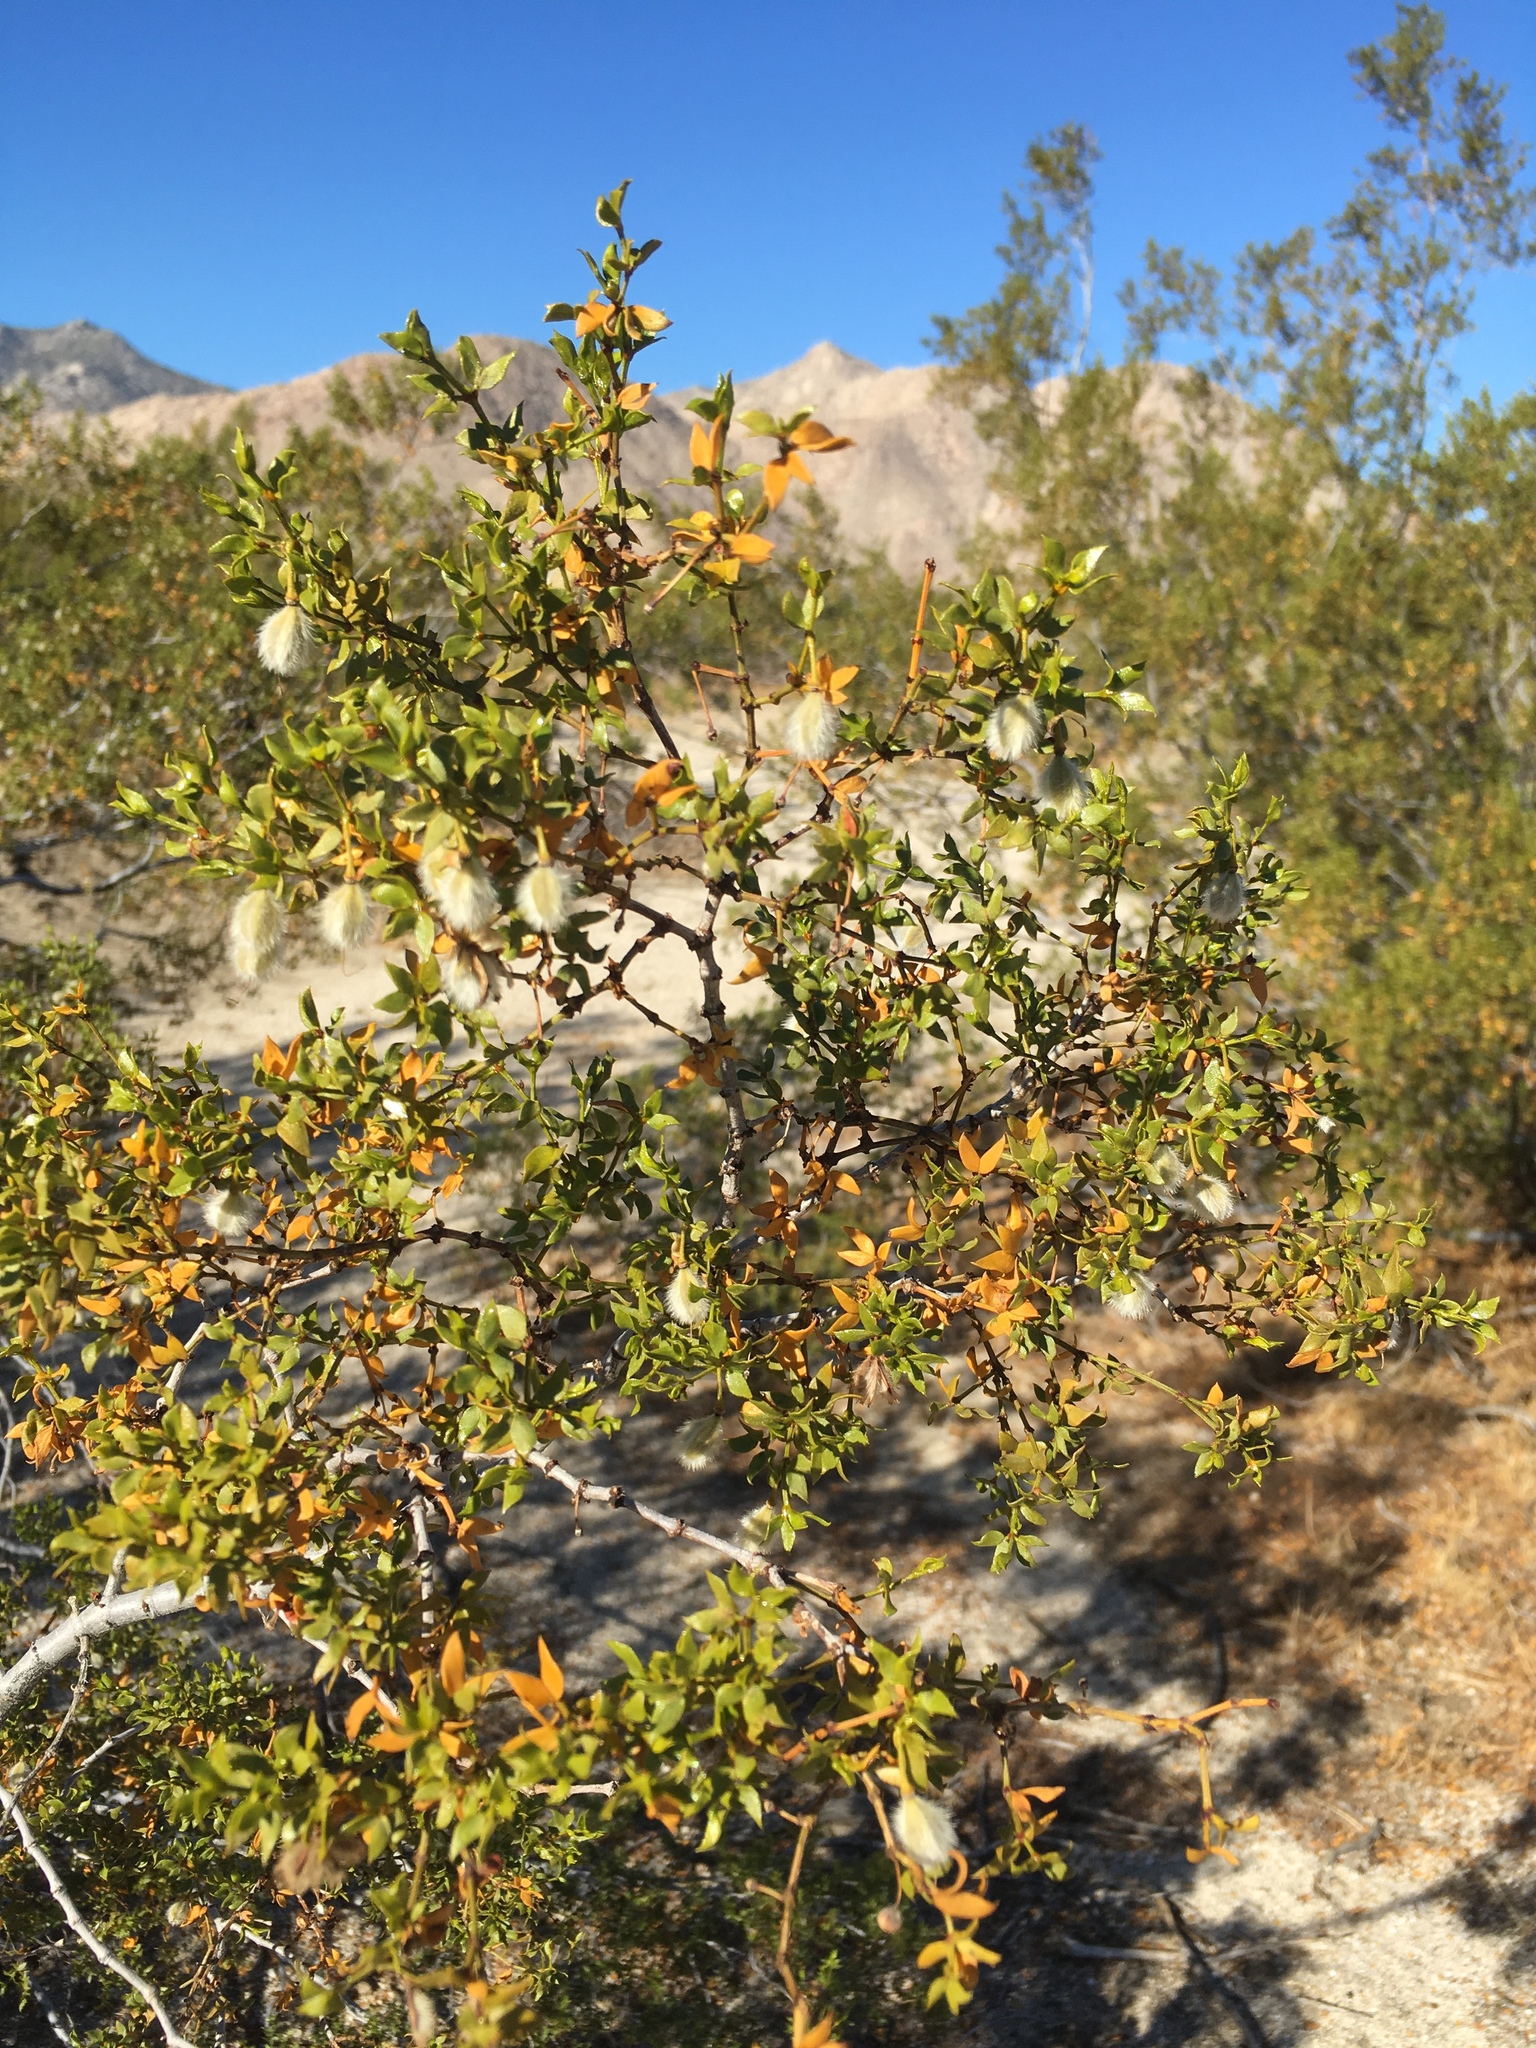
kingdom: Plantae
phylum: Tracheophyta
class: Magnoliopsida
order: Zygophyllales
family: Zygophyllaceae
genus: Larrea
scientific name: Larrea tridentata
